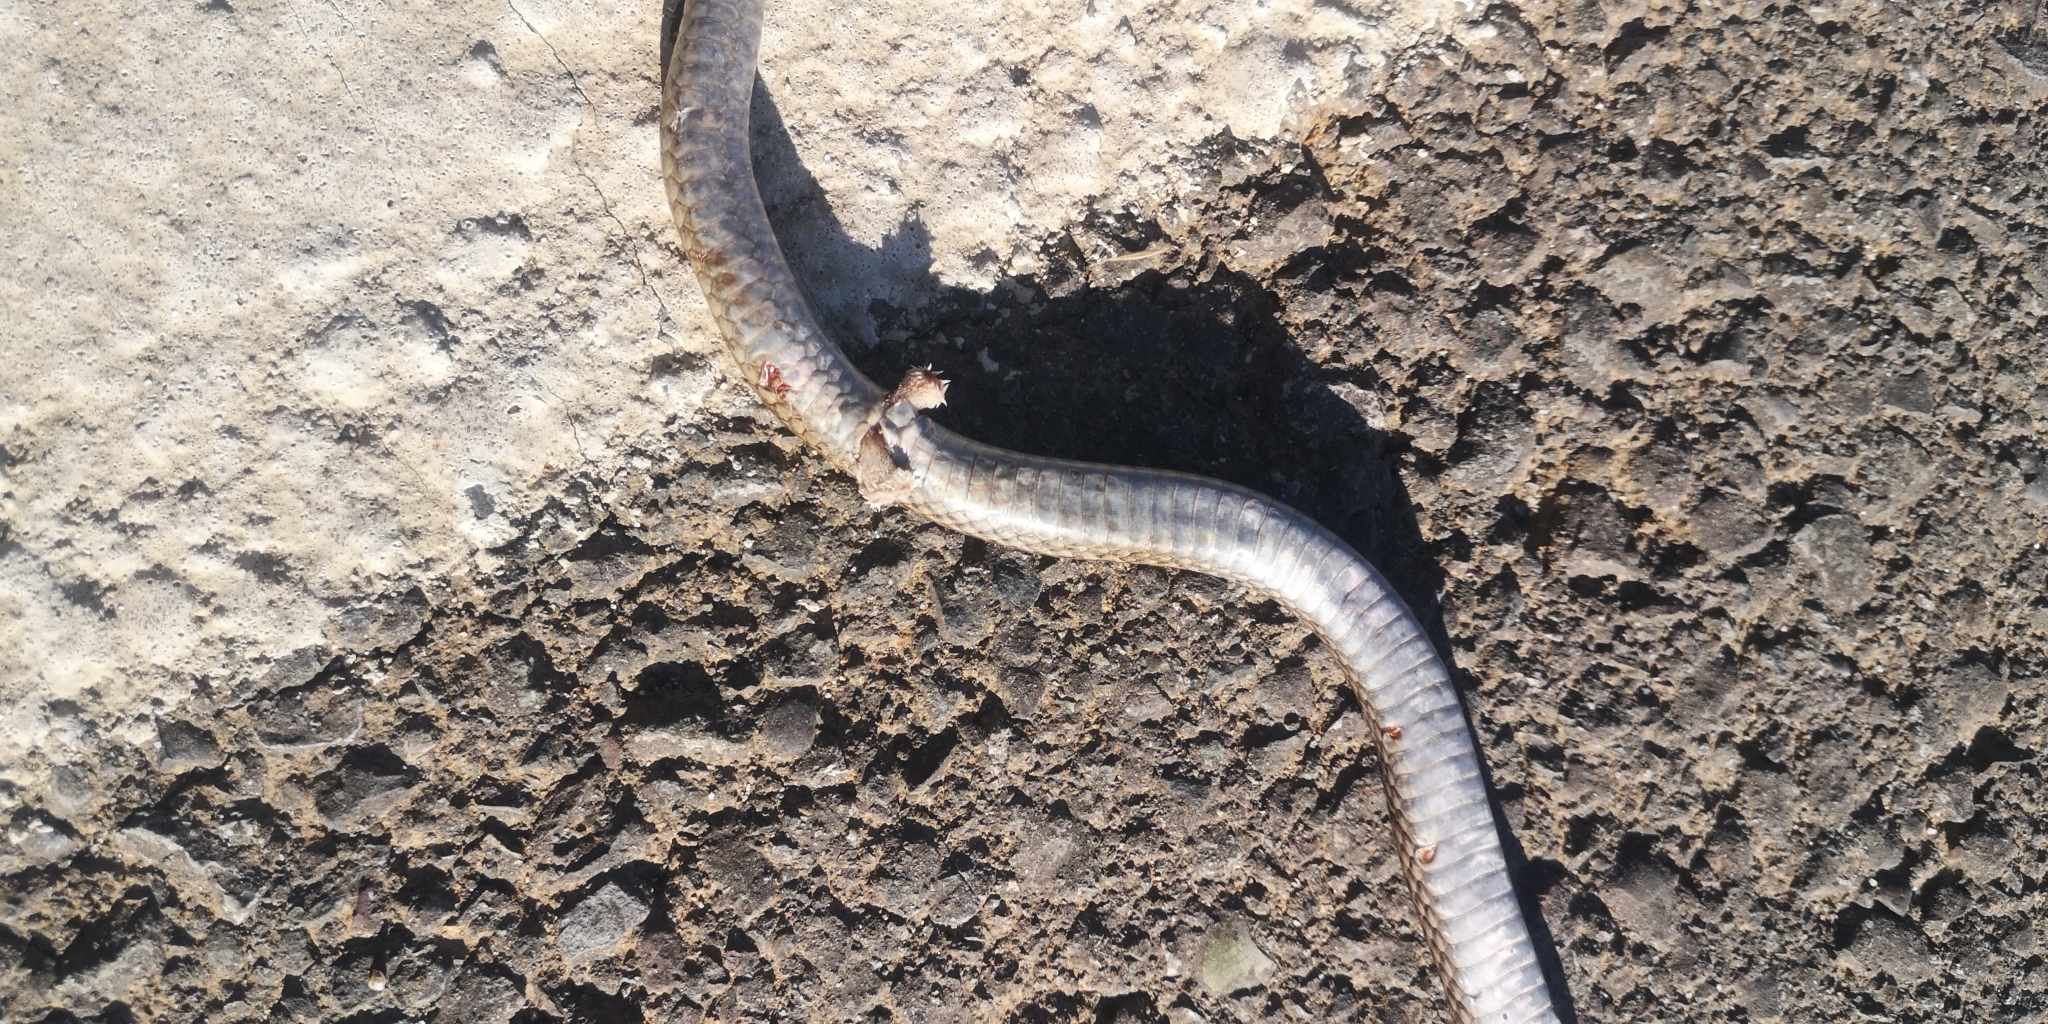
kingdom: Animalia
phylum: Chordata
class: Squamata
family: Colubridae
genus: Philodryas
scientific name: Philodryas chamissonis
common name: Chilean green racer
